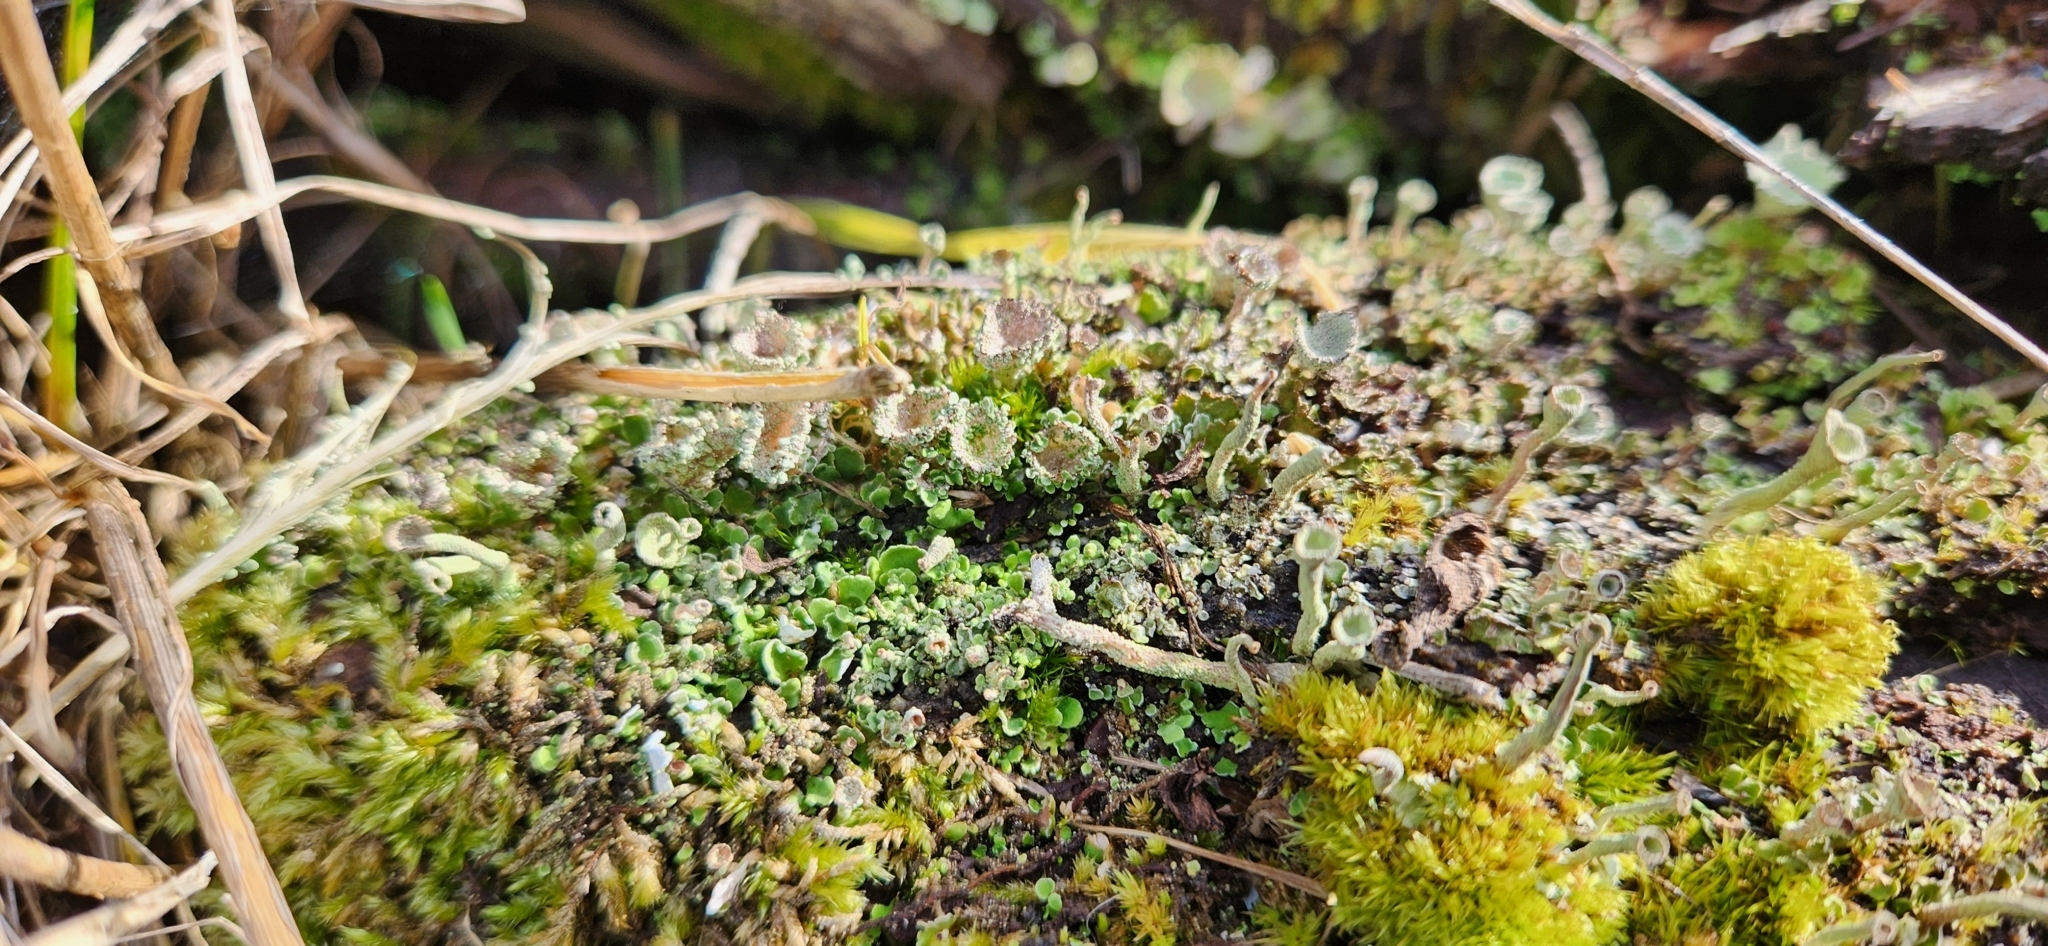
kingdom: Fungi
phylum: Ascomycota
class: Lecanoromycetes
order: Lecanorales
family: Cladoniaceae
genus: Cladonia
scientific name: Cladonia pyxidata
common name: Pebbled pixie cup
